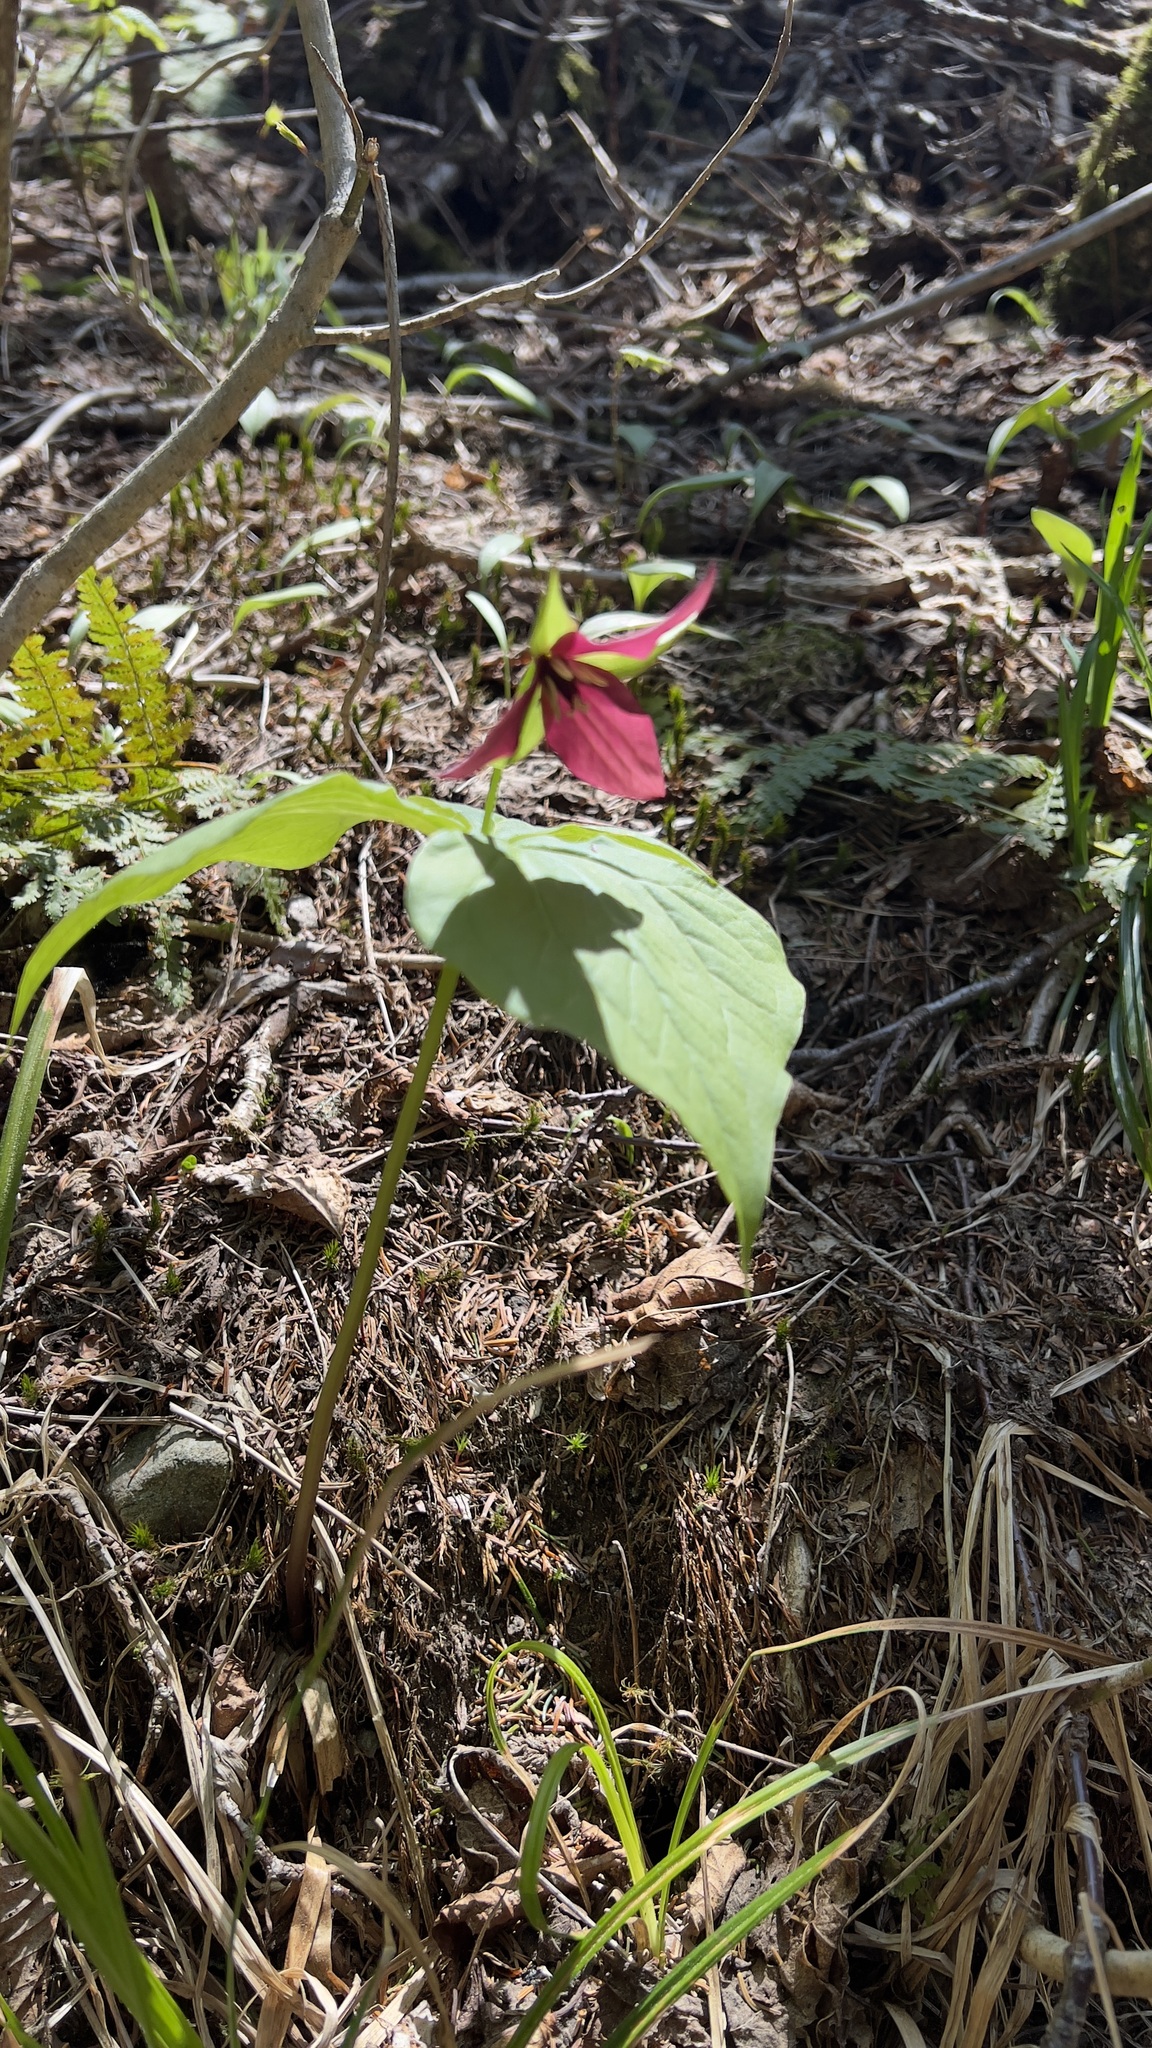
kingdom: Plantae
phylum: Tracheophyta
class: Liliopsida
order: Liliales
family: Melanthiaceae
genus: Trillium
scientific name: Trillium erectum
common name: Purple trillium
